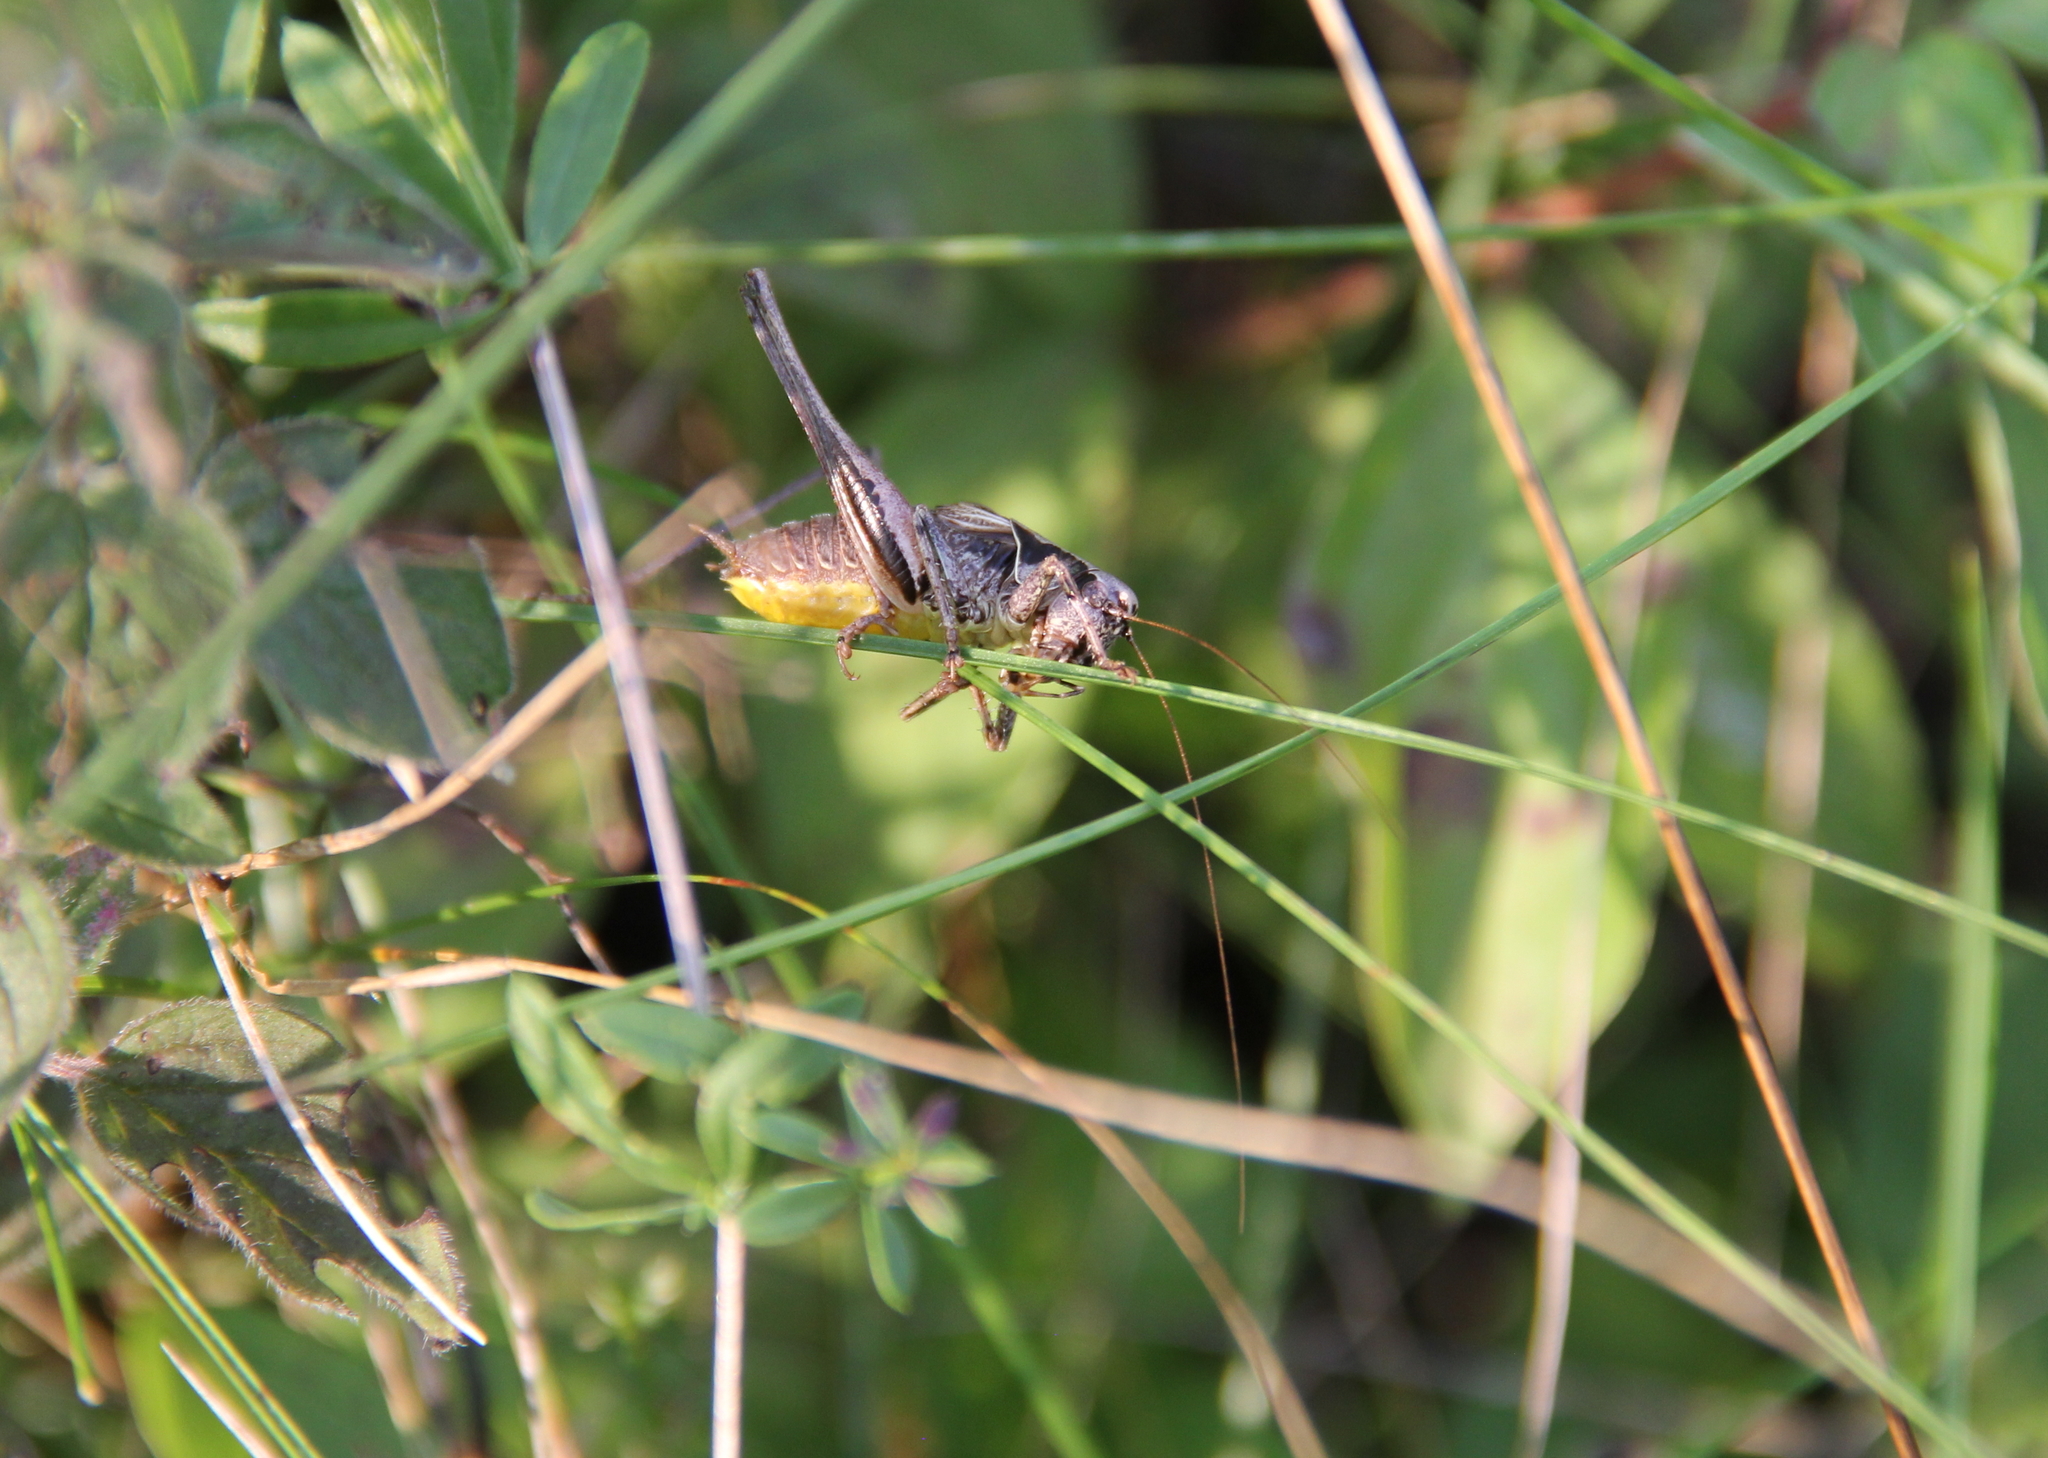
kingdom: Animalia
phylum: Arthropoda
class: Insecta
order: Orthoptera
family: Tettigoniidae
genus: Pholidoptera
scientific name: Pholidoptera griseoaptera
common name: Dark bush-cricket
